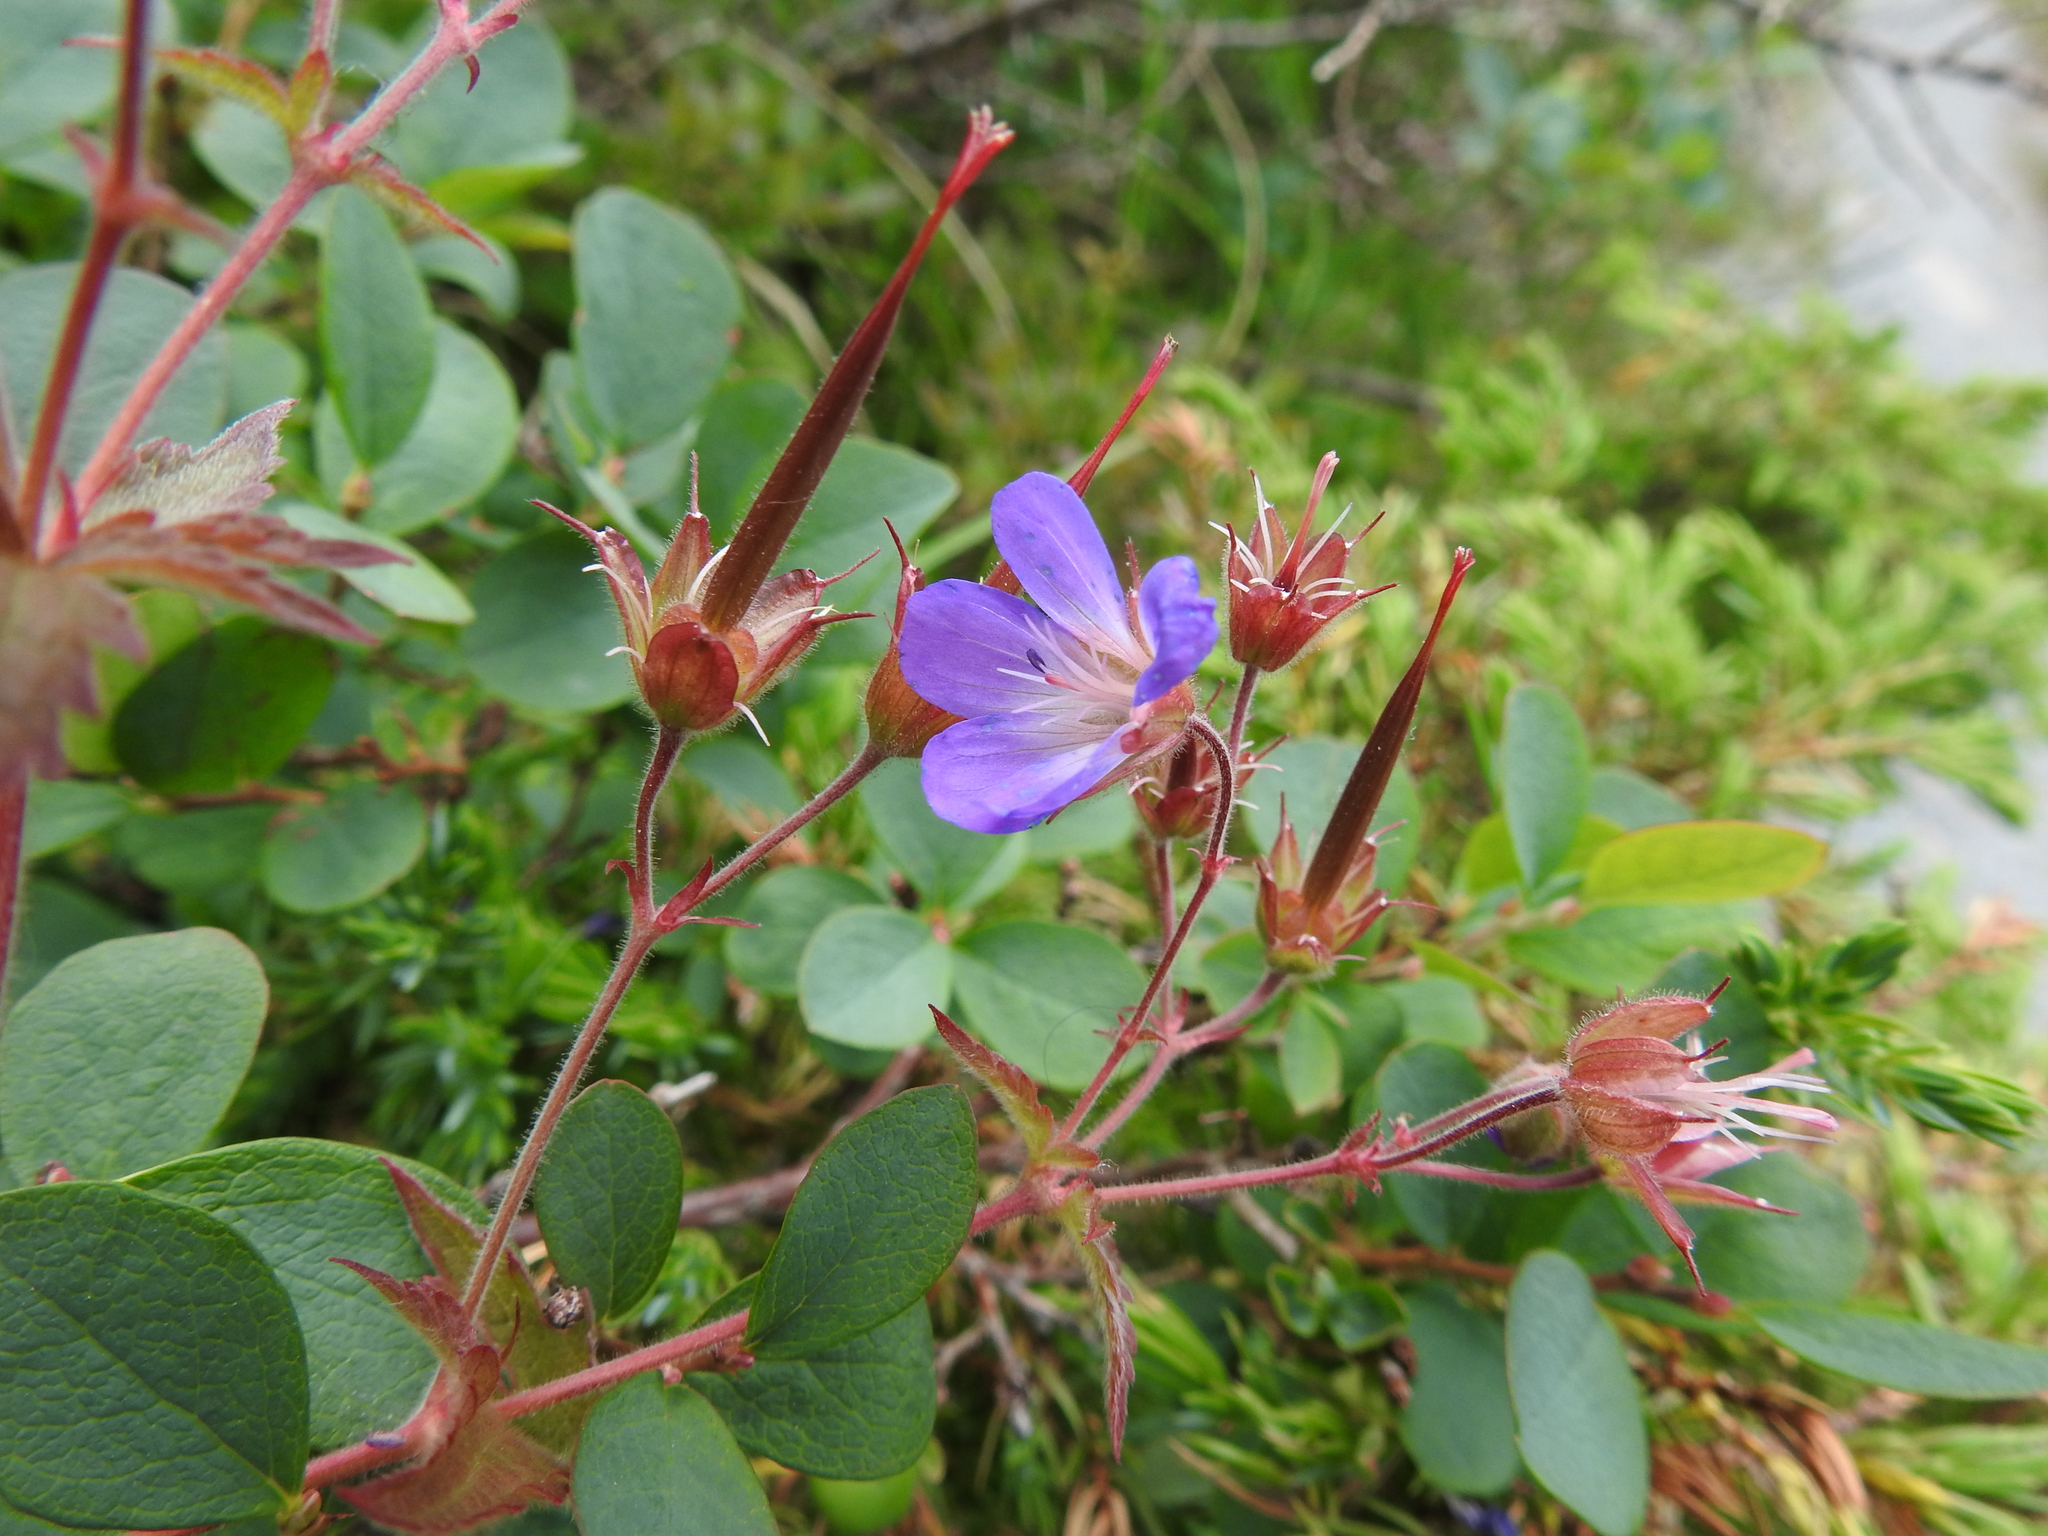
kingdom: Plantae
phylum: Tracheophyta
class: Magnoliopsida
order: Geraniales
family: Geraniaceae
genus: Geranium
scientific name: Geranium sylvaticum
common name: Wood crane's-bill
